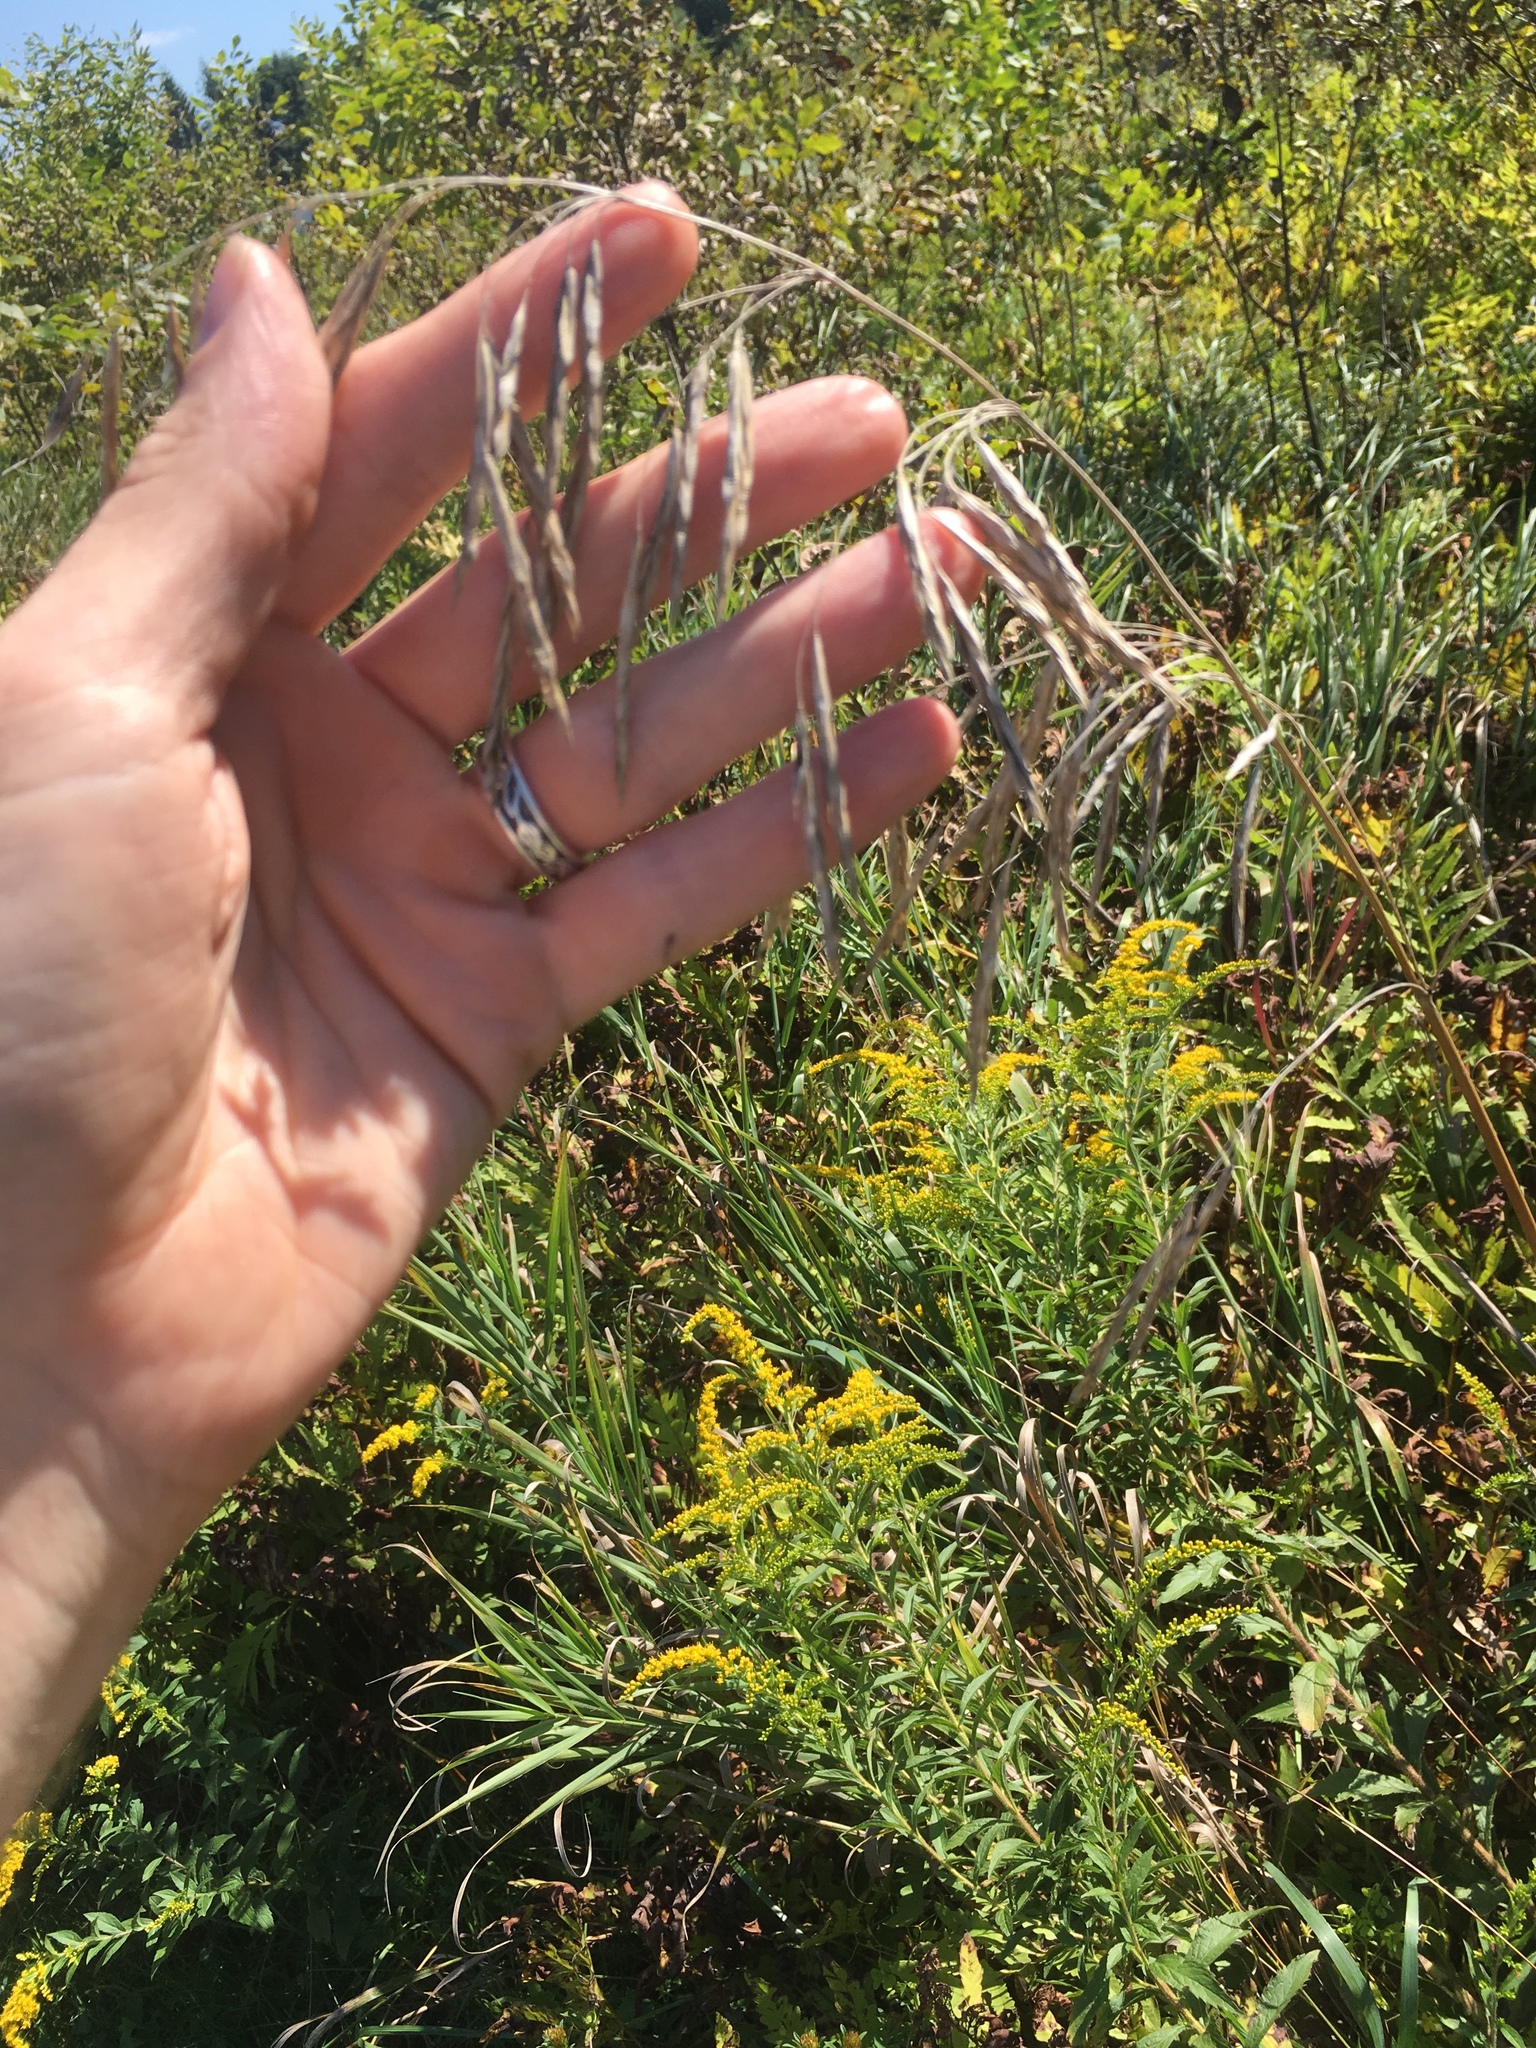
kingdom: Plantae
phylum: Tracheophyta
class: Liliopsida
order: Poales
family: Poaceae
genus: Bromus
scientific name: Bromus inermis
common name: Smooth brome
